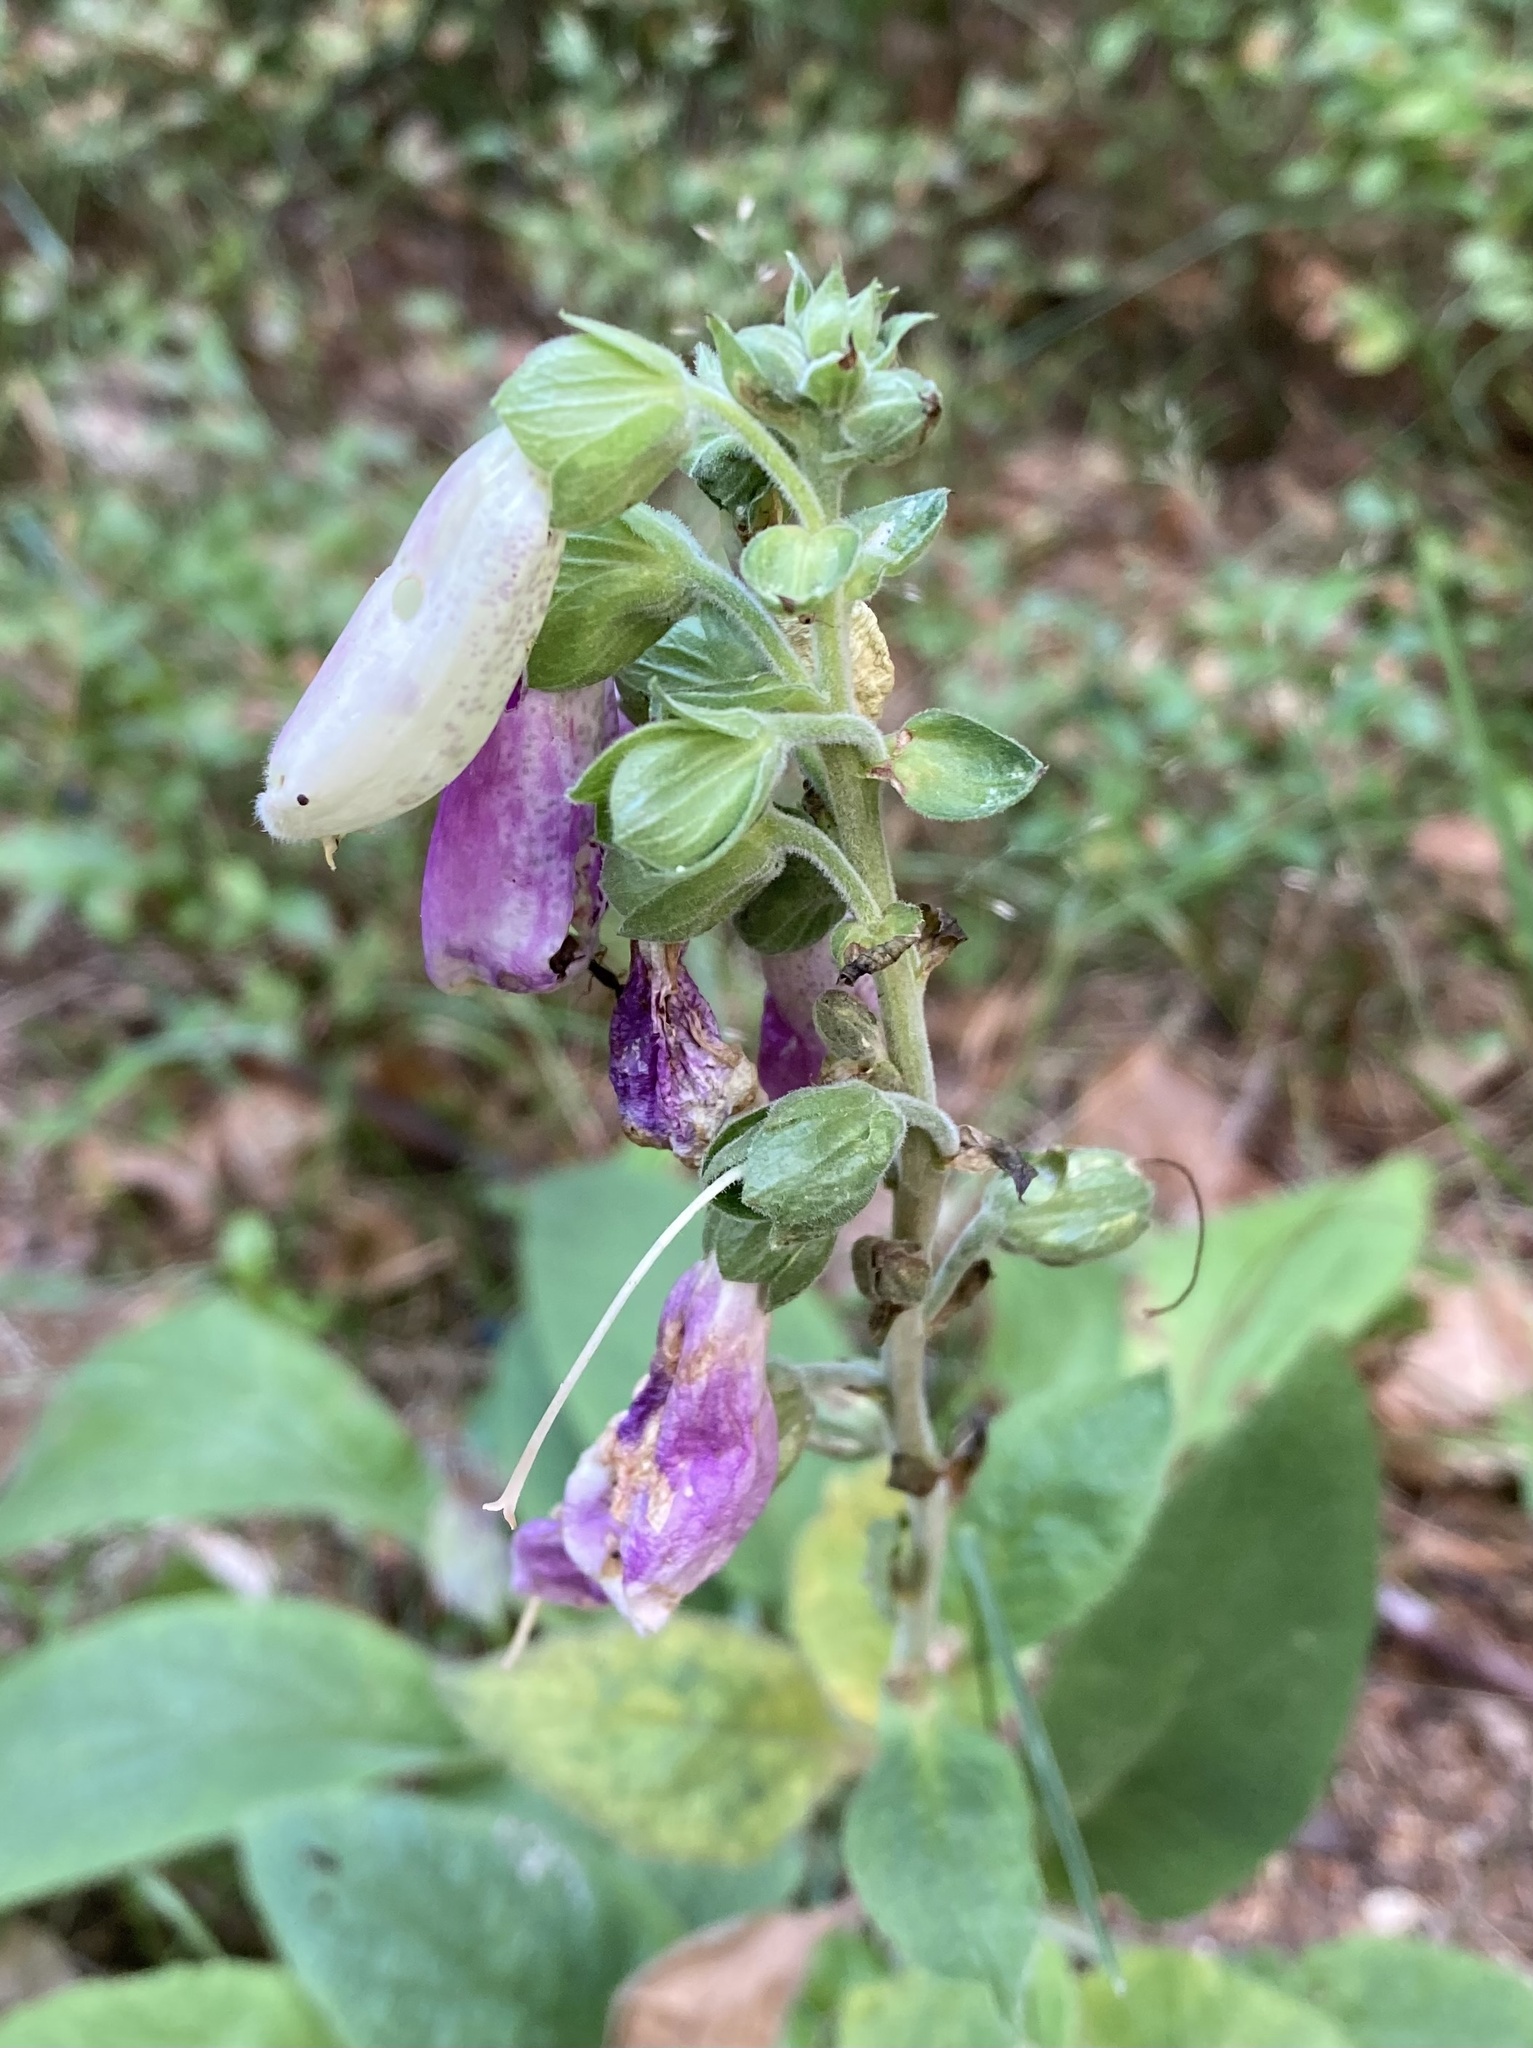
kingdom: Plantae
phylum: Tracheophyta
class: Magnoliopsida
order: Lamiales
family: Plantaginaceae
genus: Digitalis
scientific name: Digitalis purpurea
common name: Foxglove
